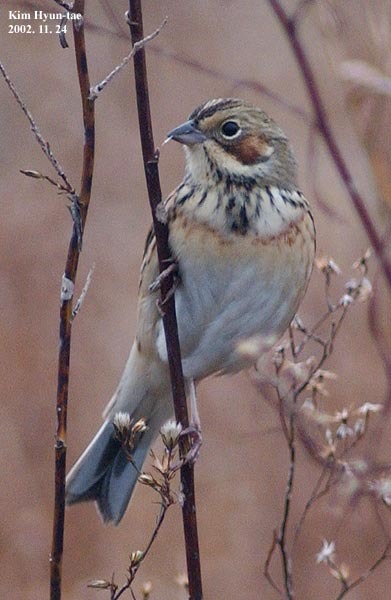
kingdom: Animalia
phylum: Chordata
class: Aves
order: Passeriformes
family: Emberizidae
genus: Emberiza
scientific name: Emberiza fucata
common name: Chestnut-eared bunting
